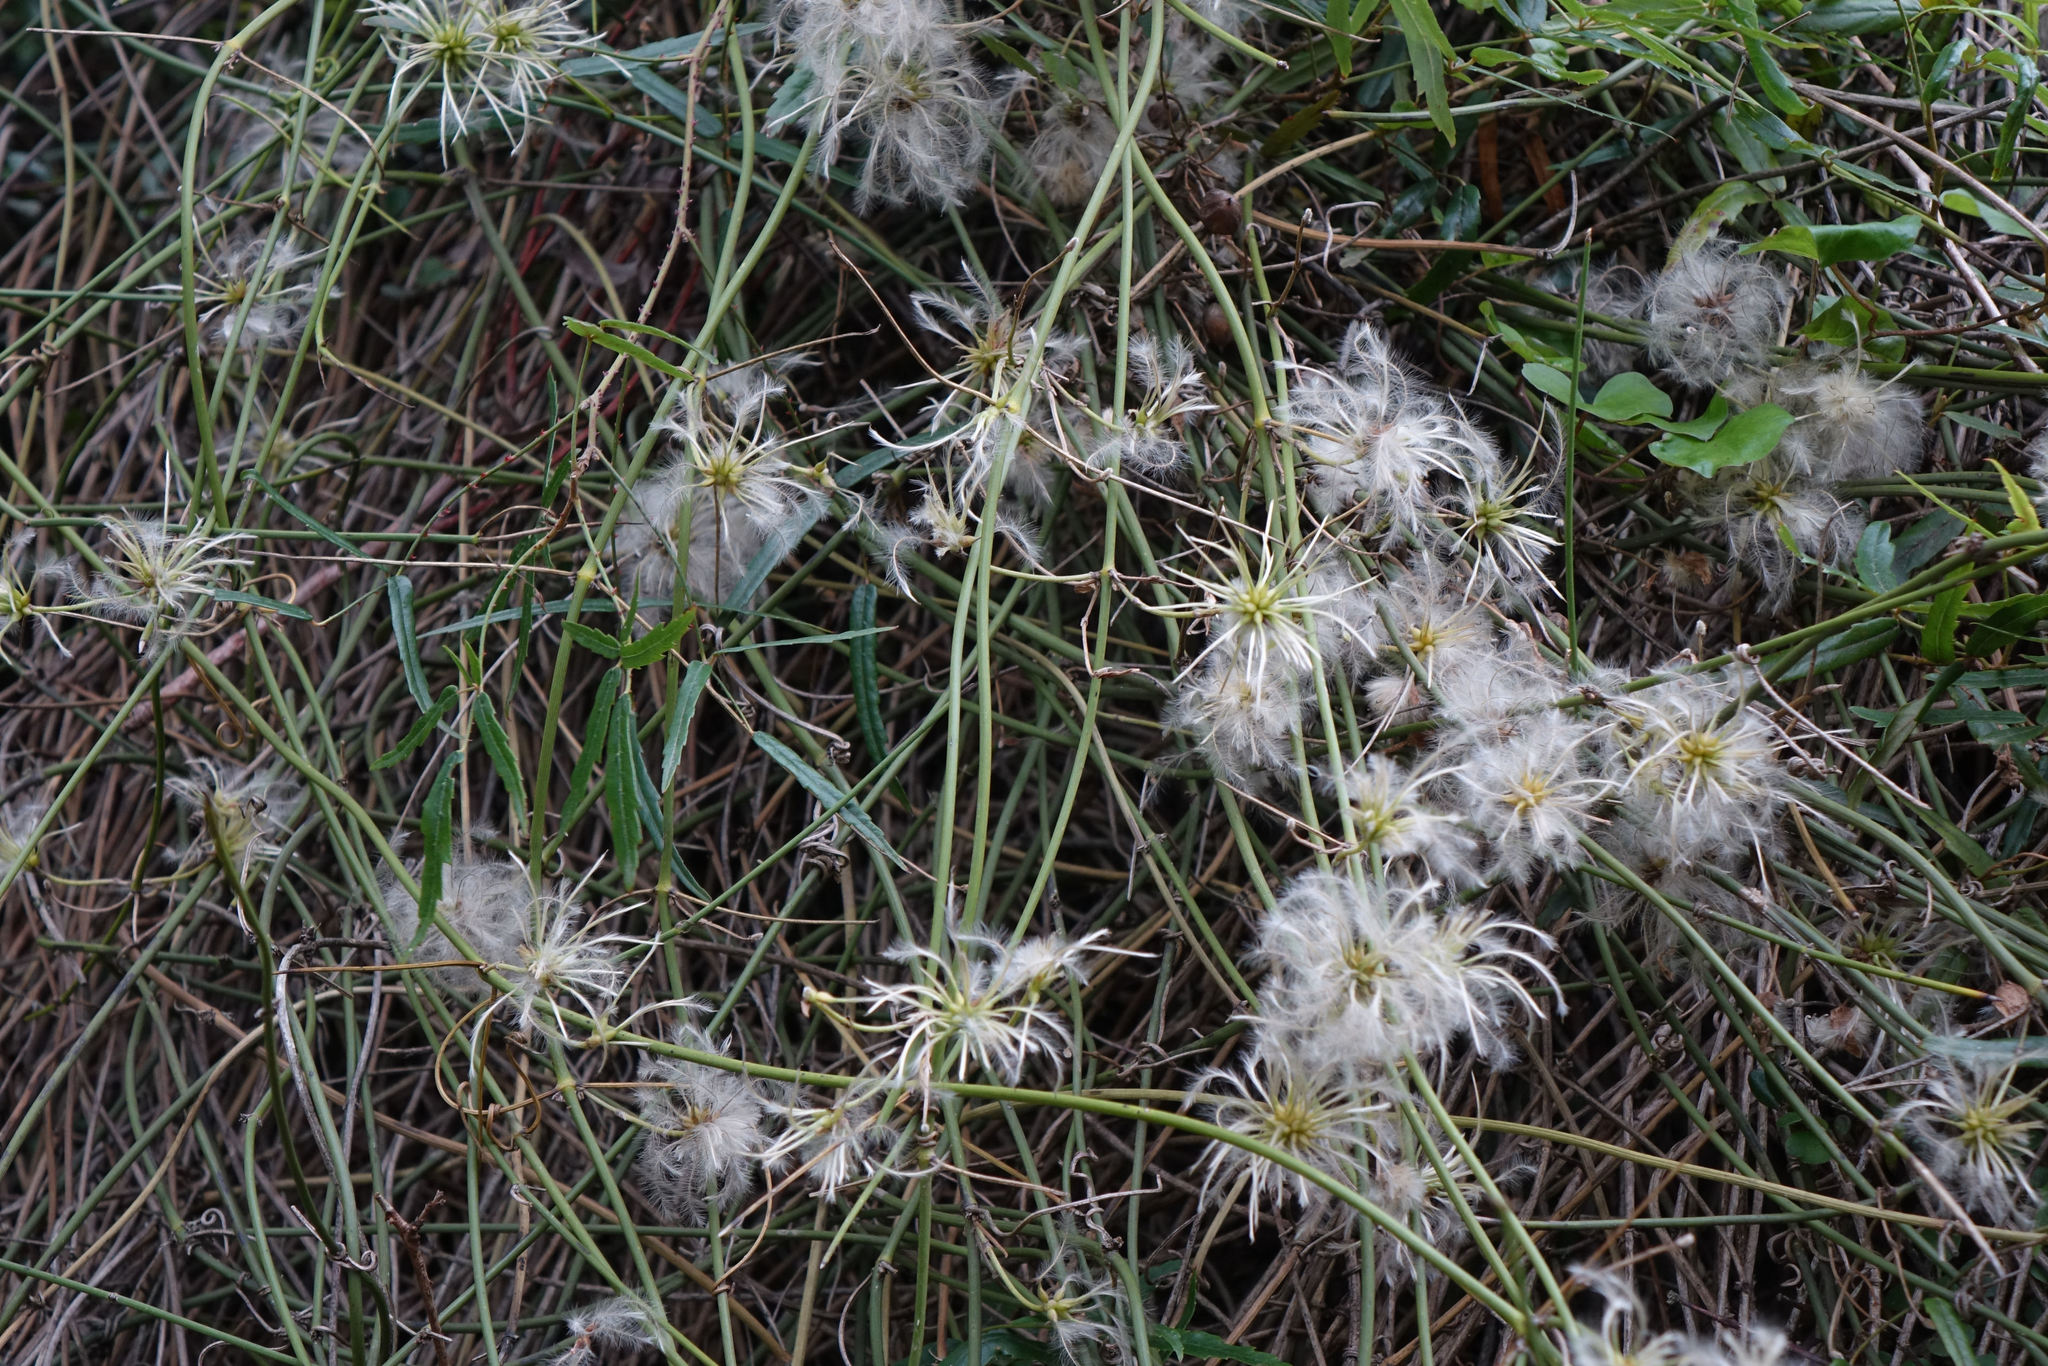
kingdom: Plantae
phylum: Tracheophyta
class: Magnoliopsida
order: Ranunculales
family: Ranunculaceae
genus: Clematis
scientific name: Clematis afoliata
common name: Rush-stem clematis
